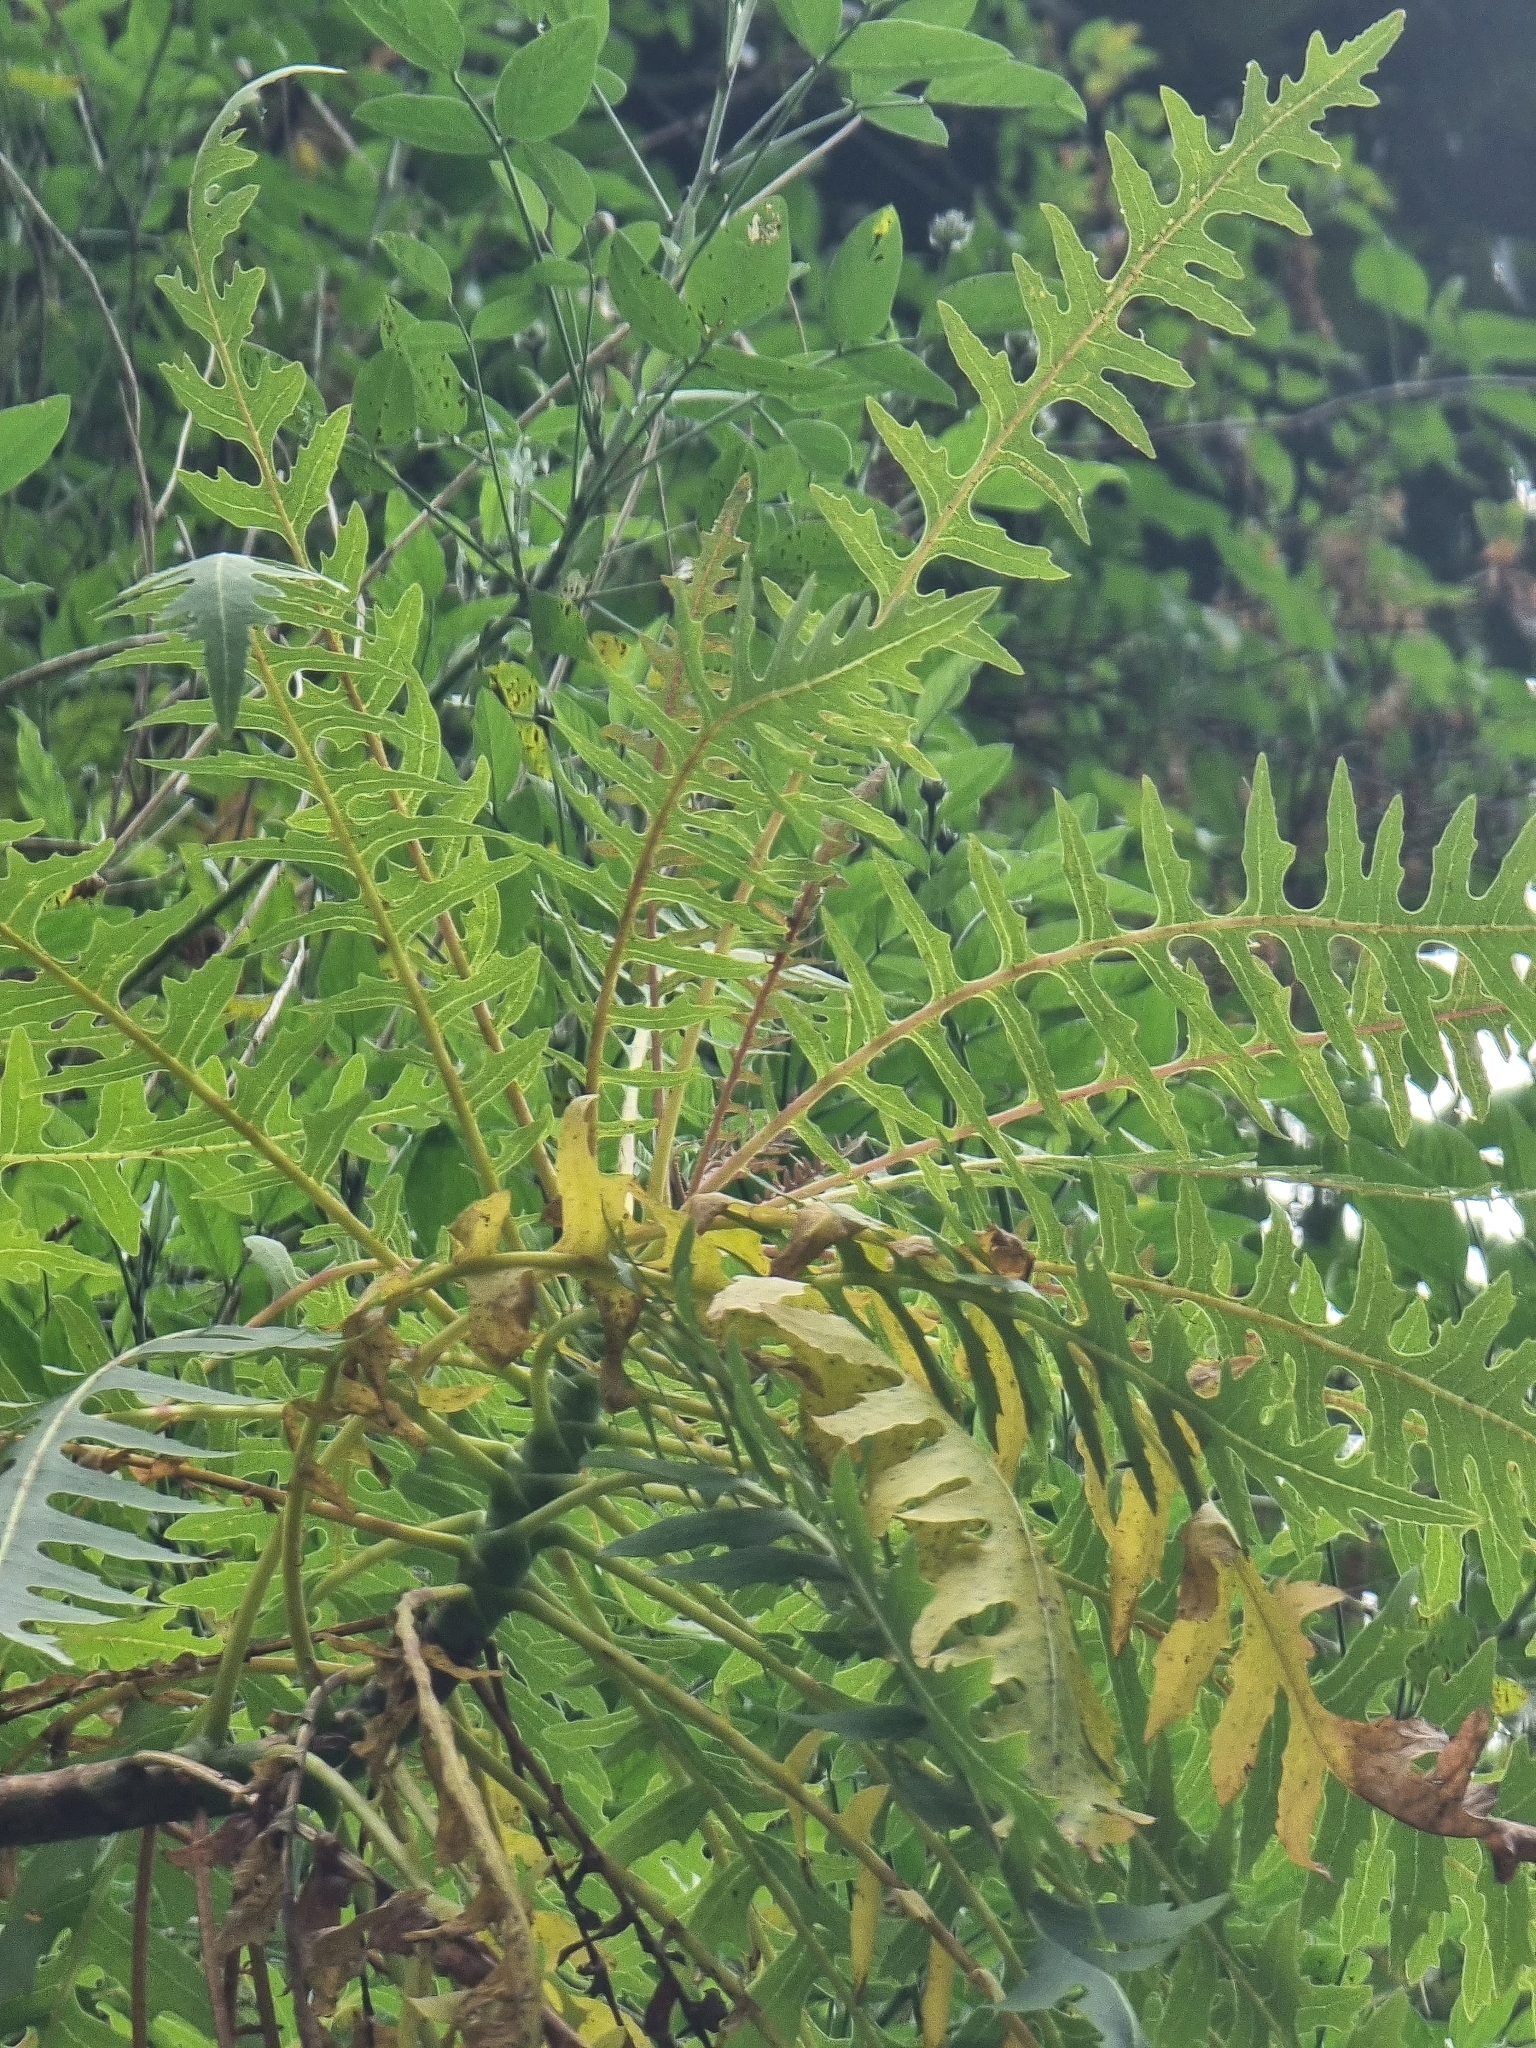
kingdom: Plantae
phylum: Tracheophyta
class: Magnoliopsida
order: Asterales
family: Asteraceae
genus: Sonchus
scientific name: Sonchus pinnatus
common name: Wing-leaved sow-thistle
